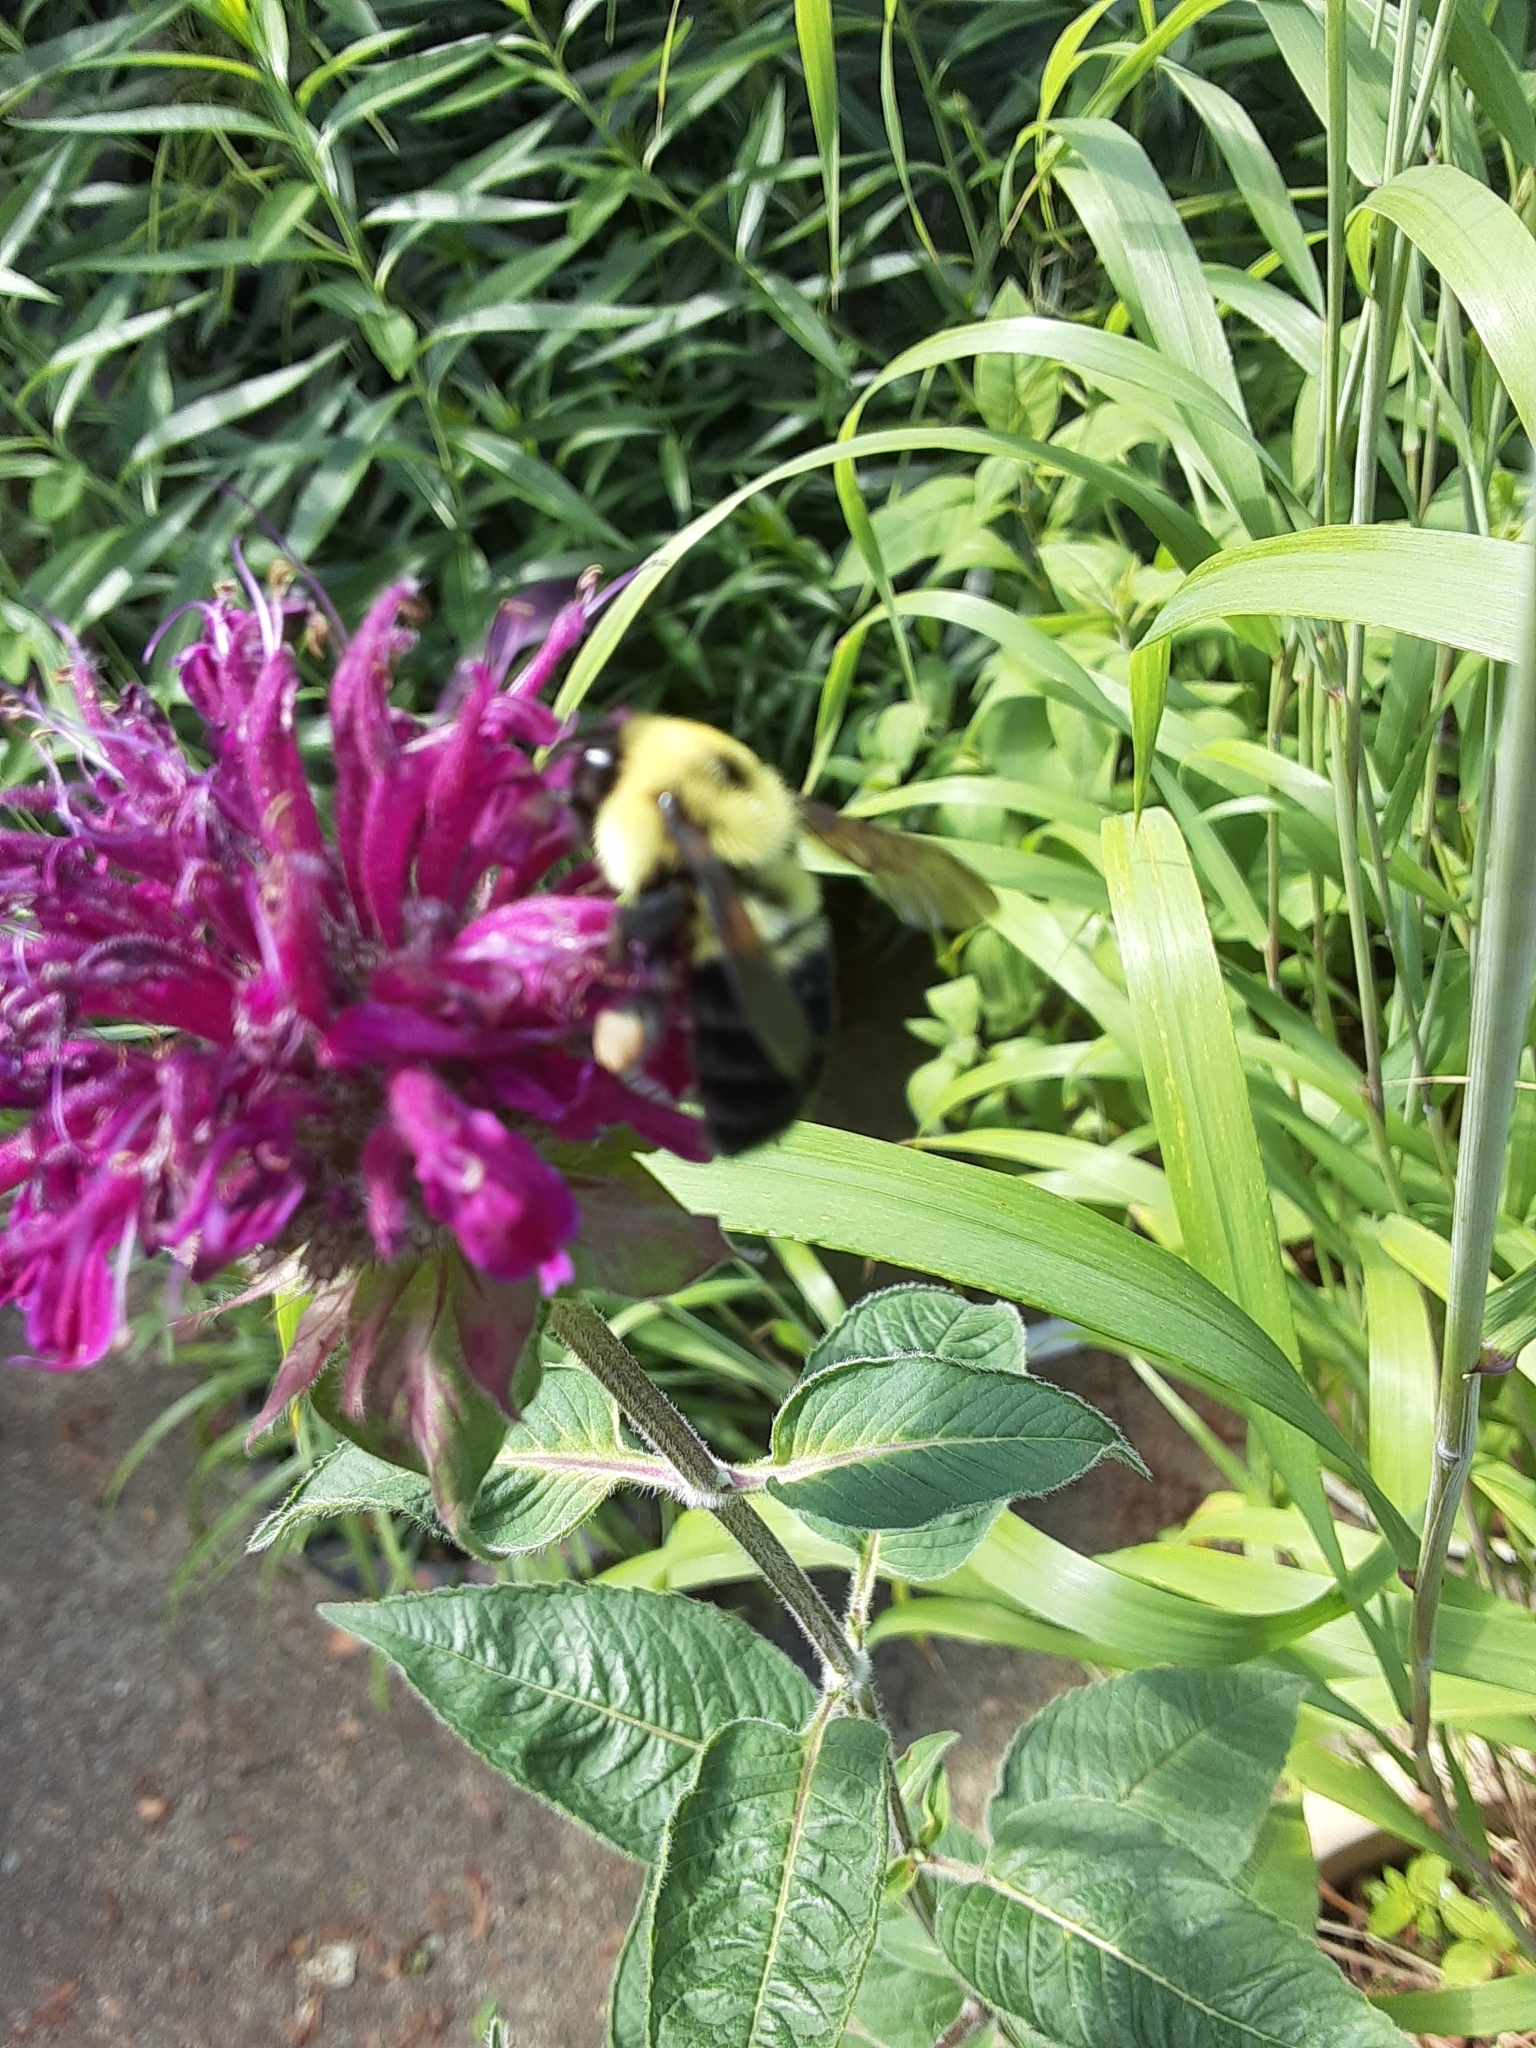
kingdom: Animalia
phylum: Arthropoda
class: Insecta
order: Hymenoptera
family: Apidae
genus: Bombus
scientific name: Bombus bimaculatus
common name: Two-spotted bumble bee
